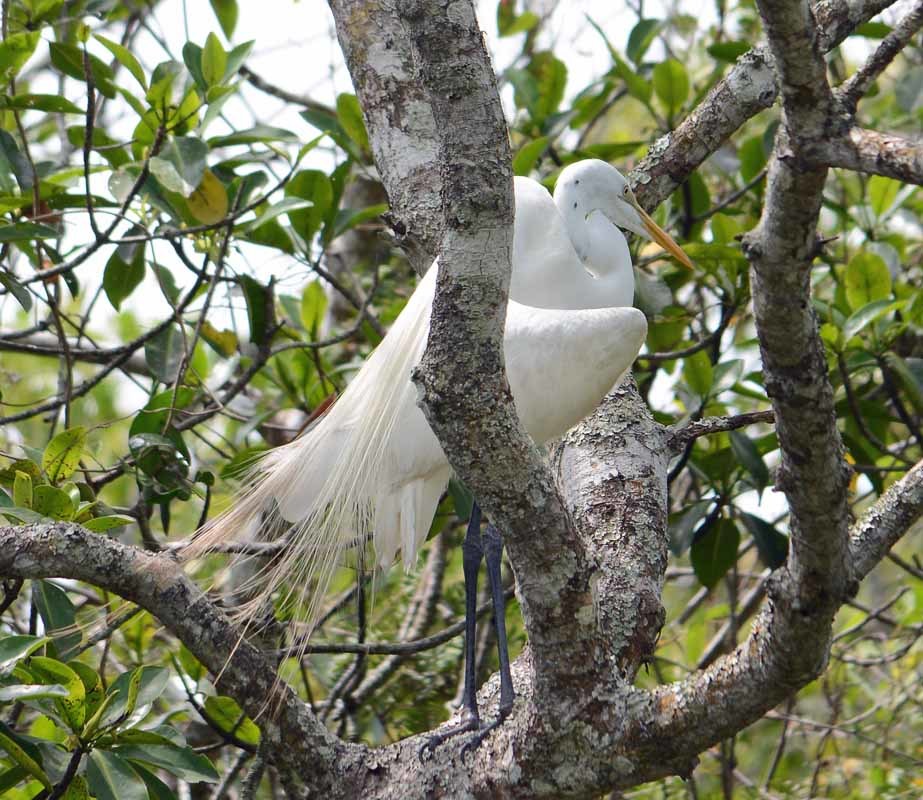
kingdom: Animalia
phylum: Chordata
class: Aves
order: Pelecaniformes
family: Ardeidae
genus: Ardea
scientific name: Ardea alba
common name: Great egret
